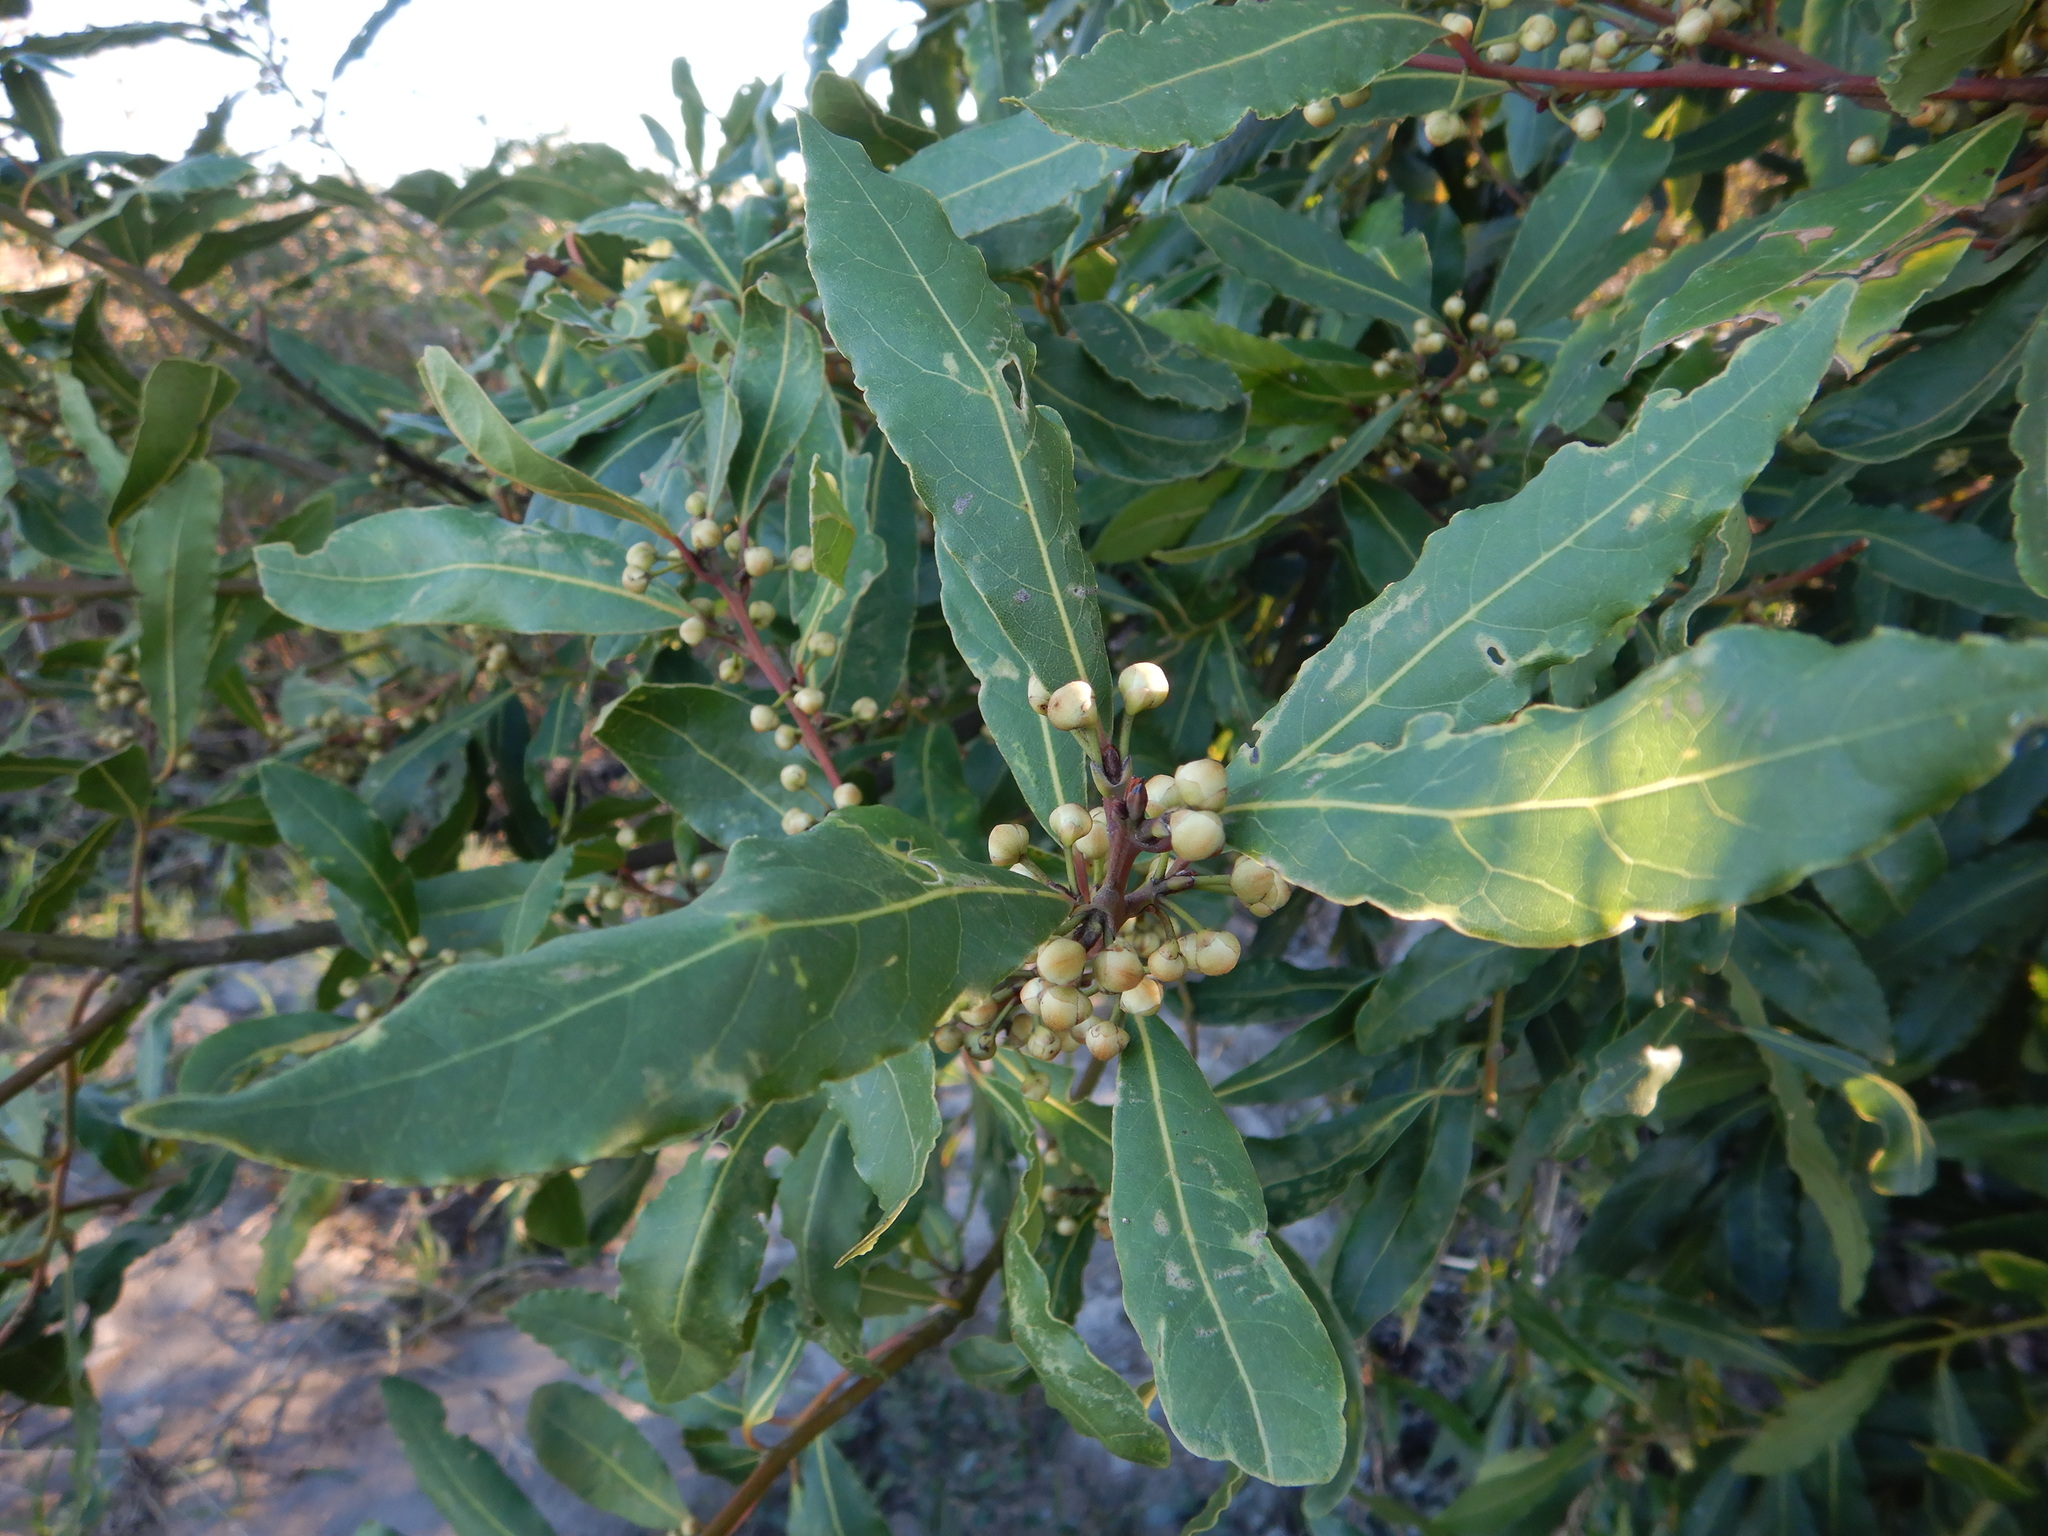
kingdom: Plantae
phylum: Tracheophyta
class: Magnoliopsida
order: Laurales
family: Lauraceae
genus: Laurus
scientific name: Laurus nobilis
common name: Bay
